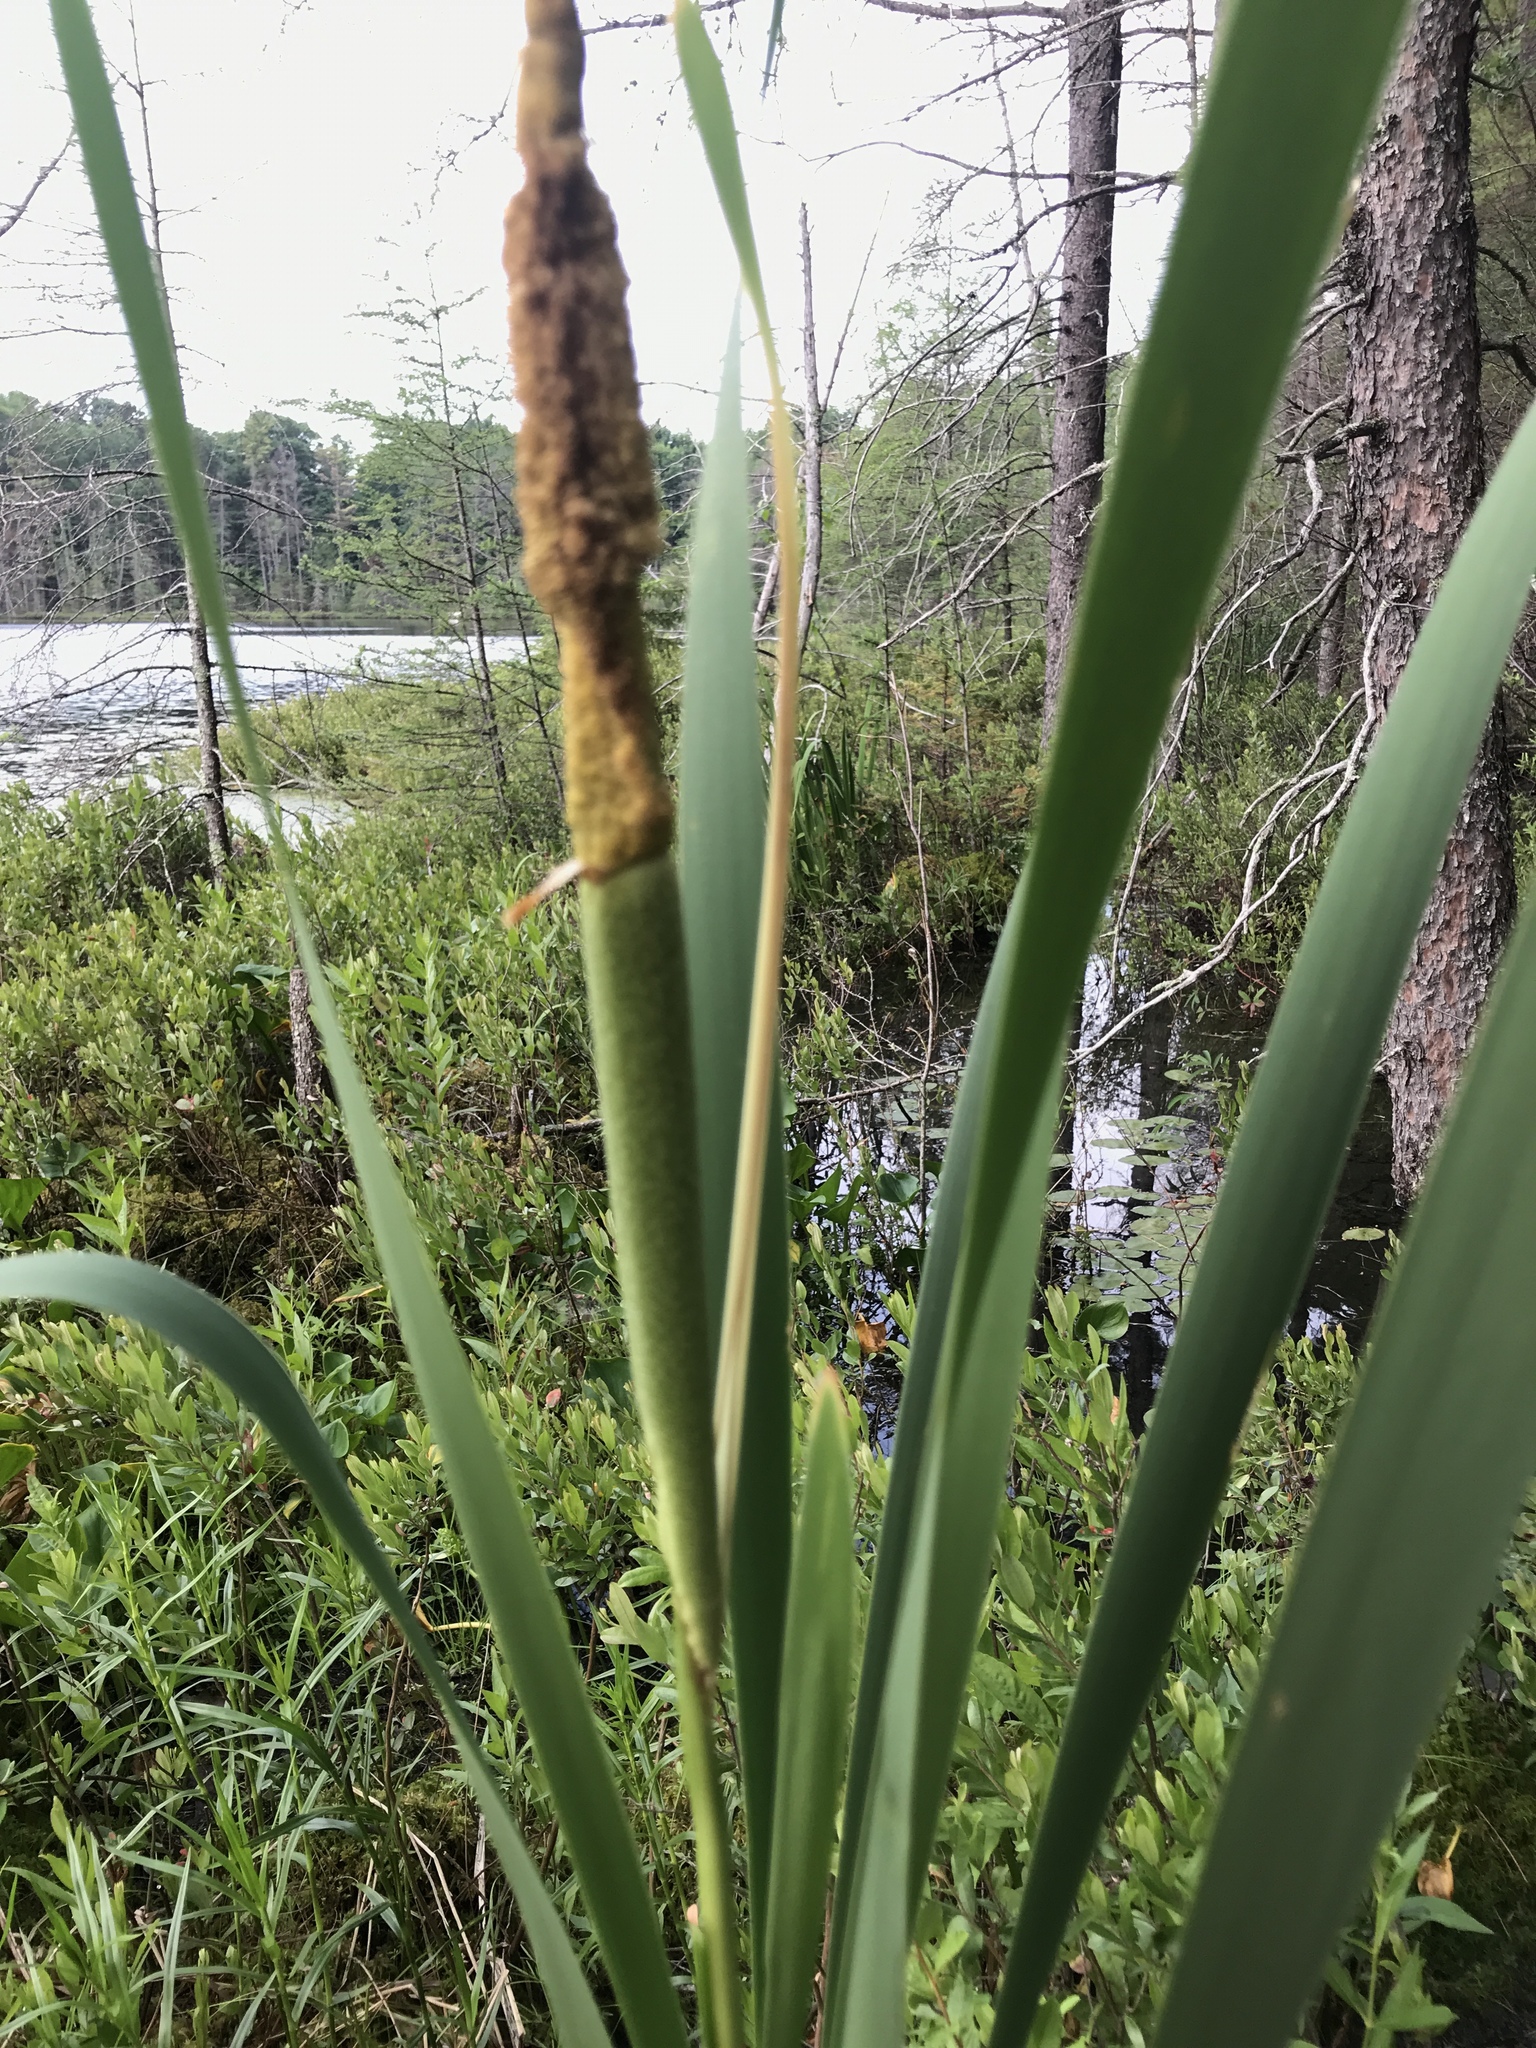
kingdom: Plantae
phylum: Tracheophyta
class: Liliopsida
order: Poales
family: Typhaceae
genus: Typha
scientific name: Typha latifolia
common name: Broadleaf cattail
